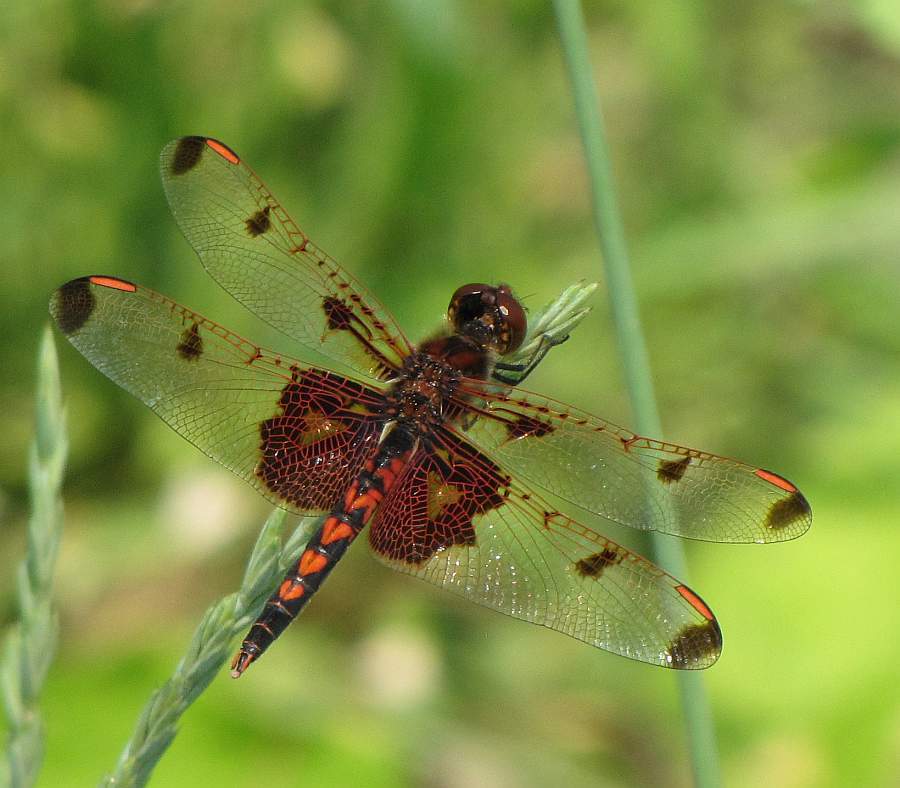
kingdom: Animalia
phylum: Arthropoda
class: Insecta
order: Odonata
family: Libellulidae
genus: Celithemis
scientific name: Celithemis elisa
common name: Calico pennant
